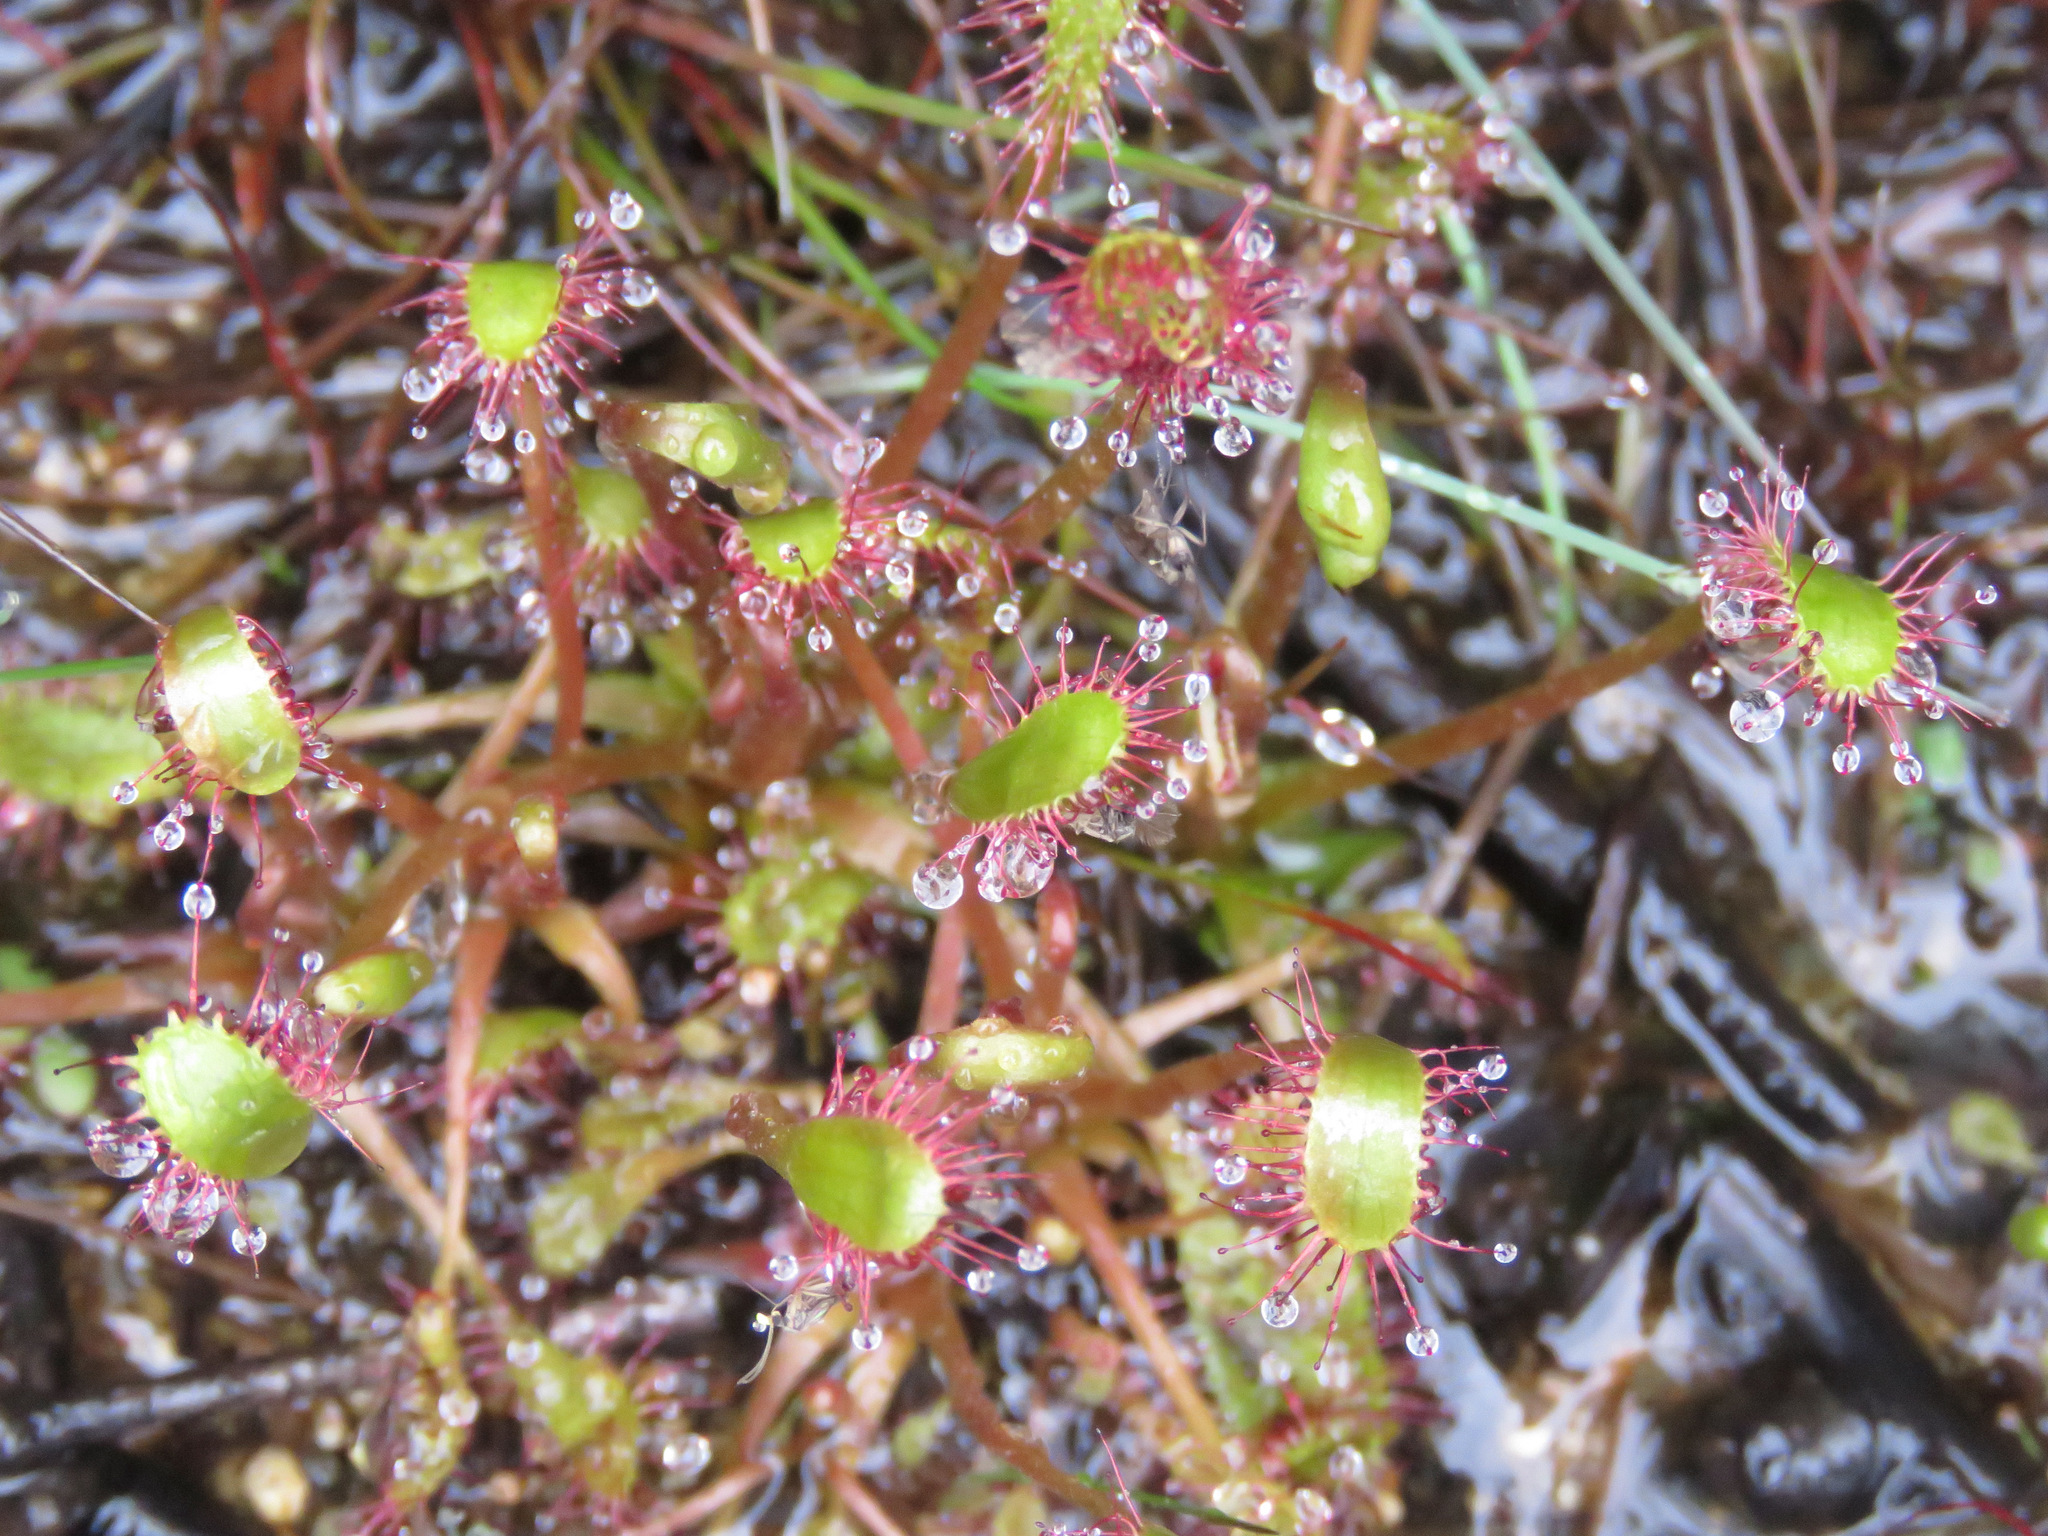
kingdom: Plantae
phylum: Tracheophyta
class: Magnoliopsida
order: Caryophyllales
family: Droseraceae
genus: Drosera
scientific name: Drosera anglica
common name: Great sundew
